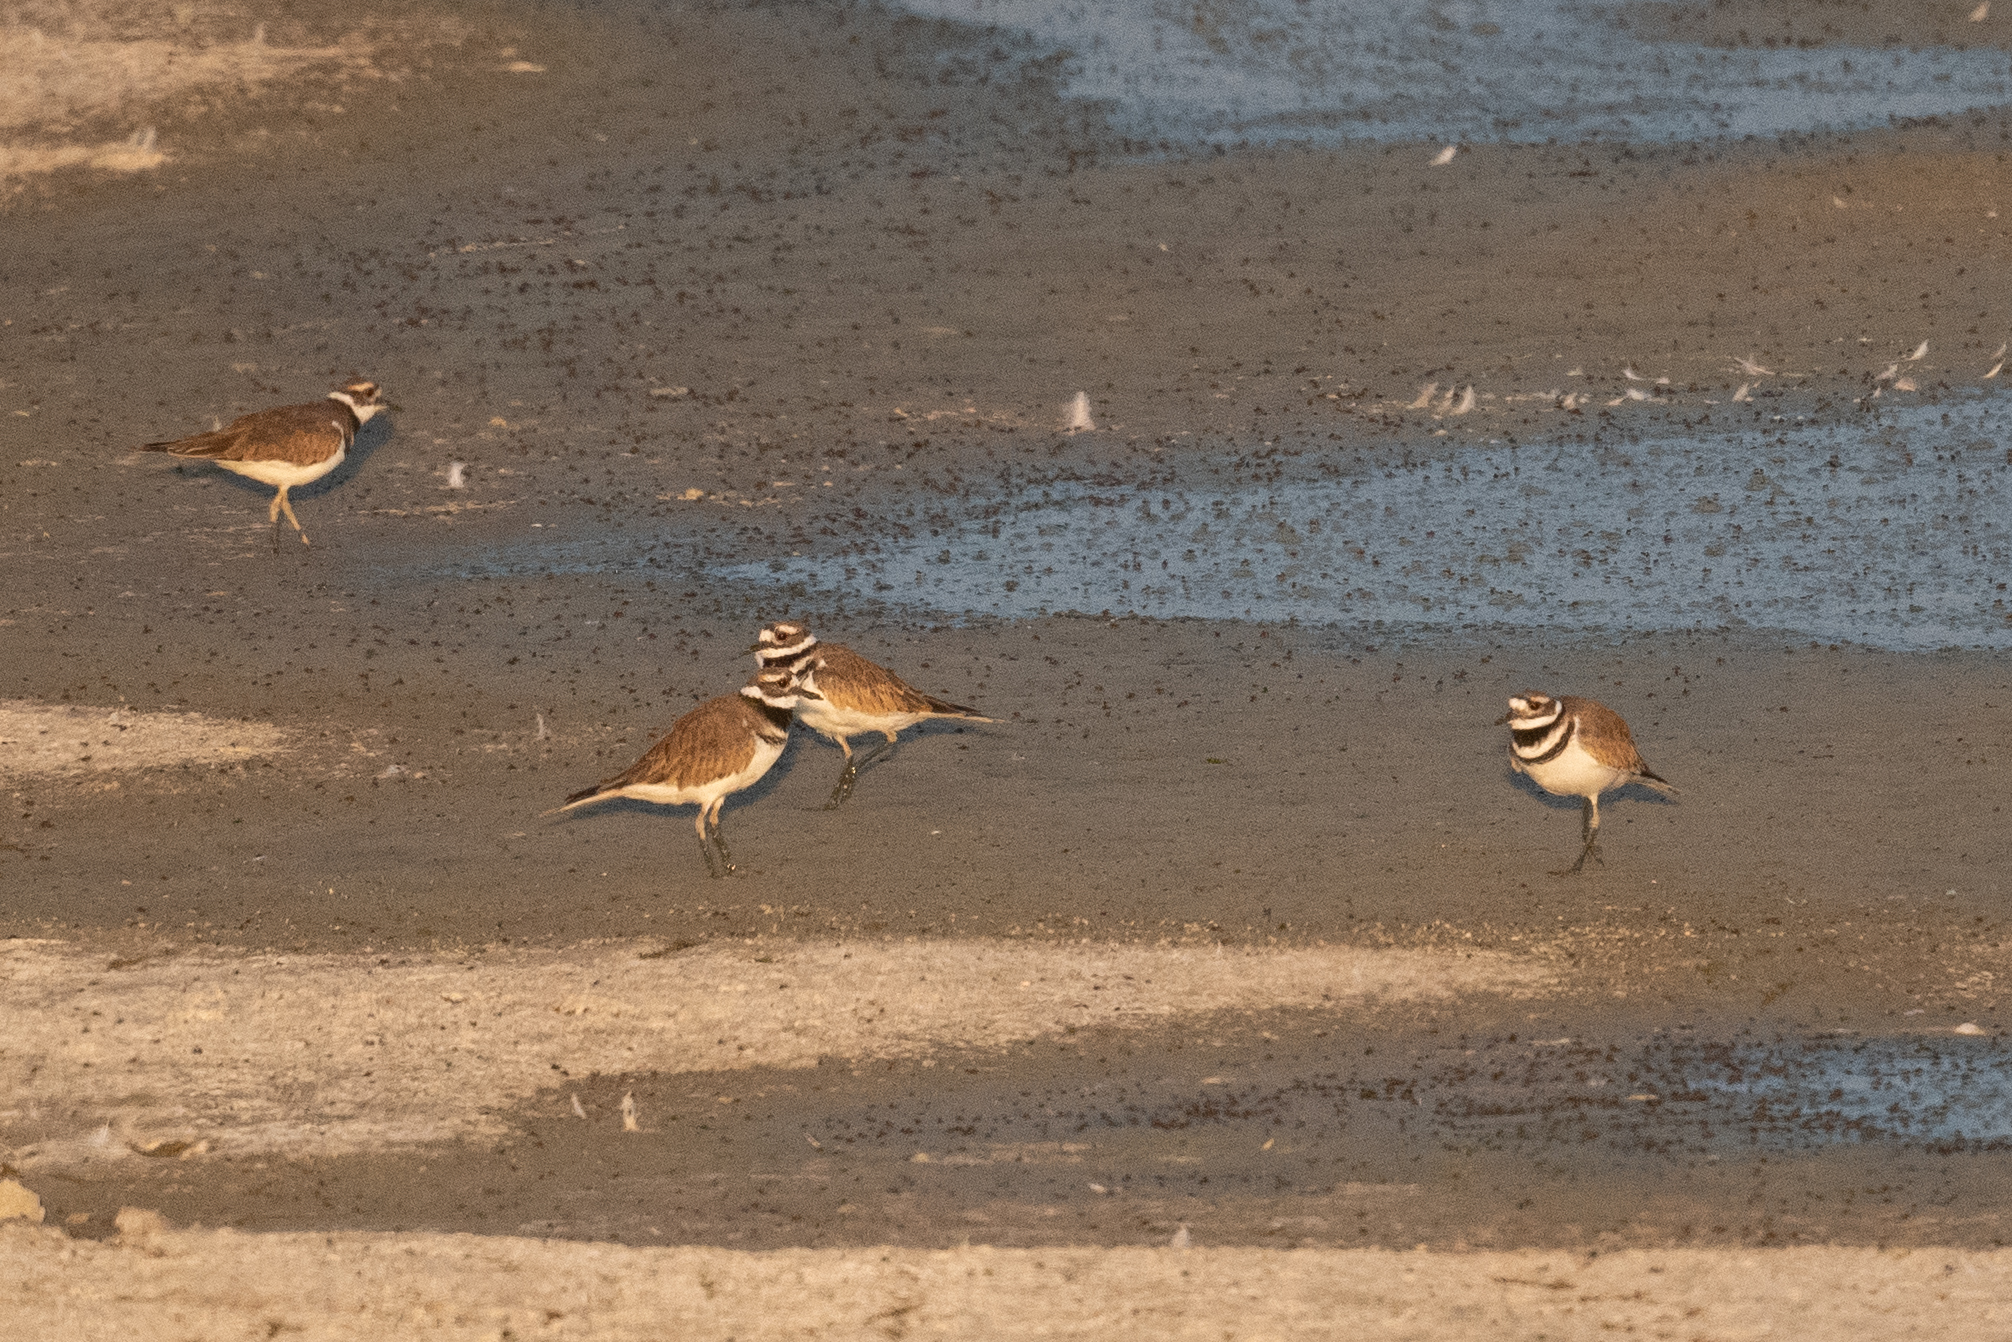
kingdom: Animalia
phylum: Chordata
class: Aves
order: Charadriiformes
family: Charadriidae
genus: Charadrius
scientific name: Charadrius vociferus
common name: Killdeer
